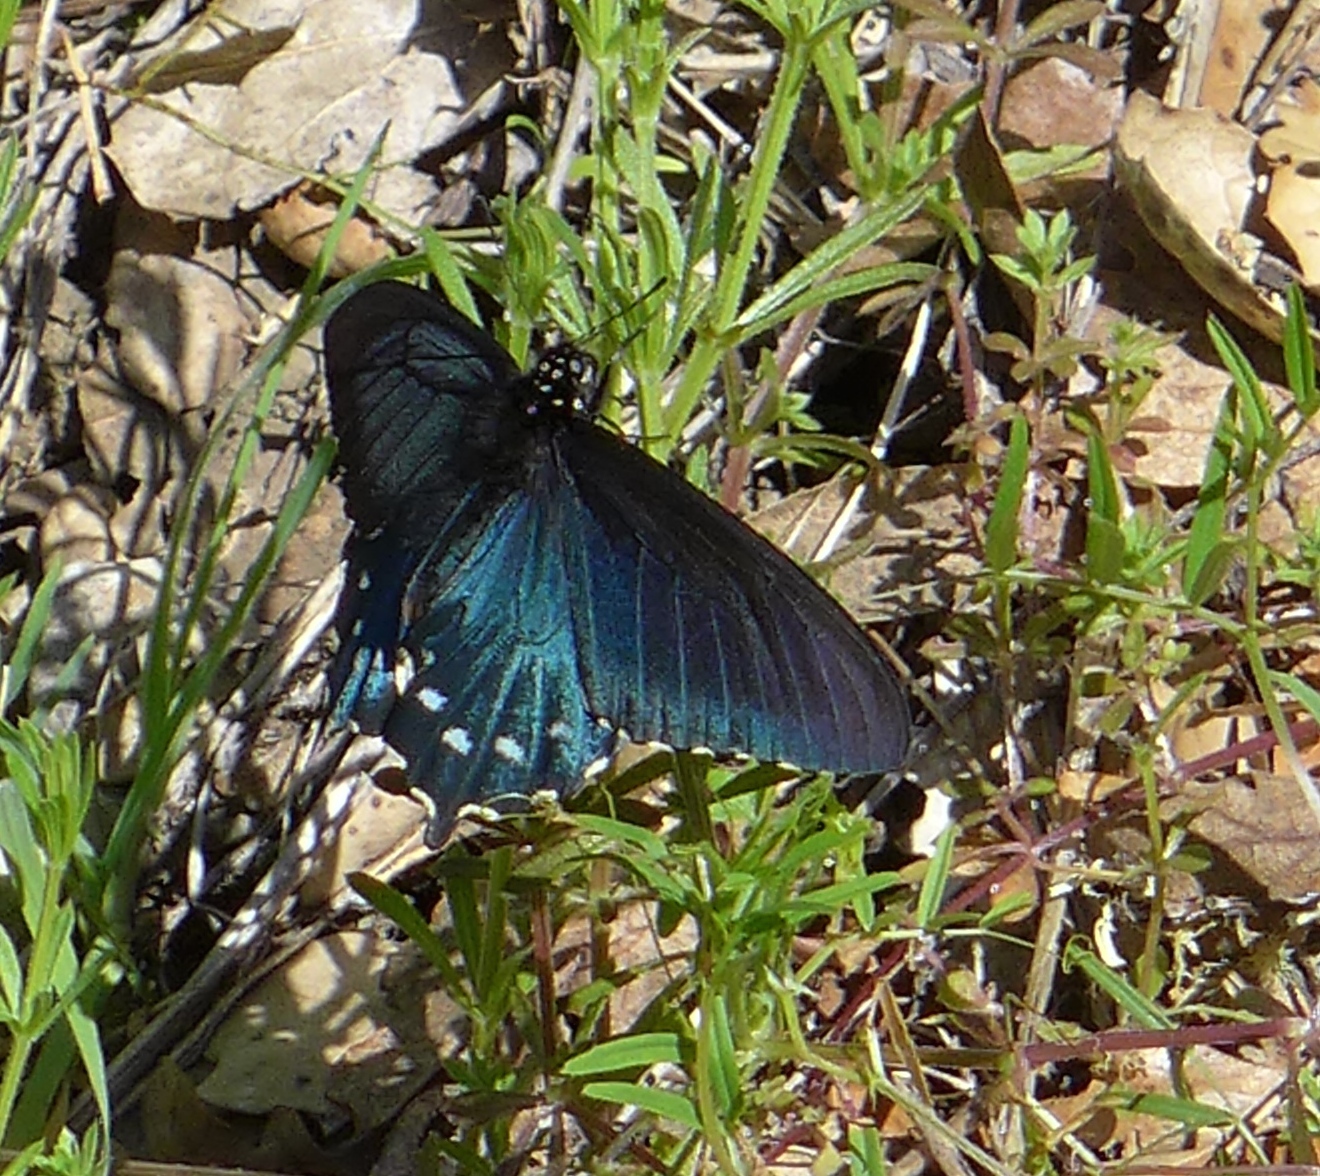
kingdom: Animalia
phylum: Arthropoda
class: Insecta
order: Lepidoptera
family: Papilionidae
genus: Battus
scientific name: Battus philenor
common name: Pipevine swallowtail
